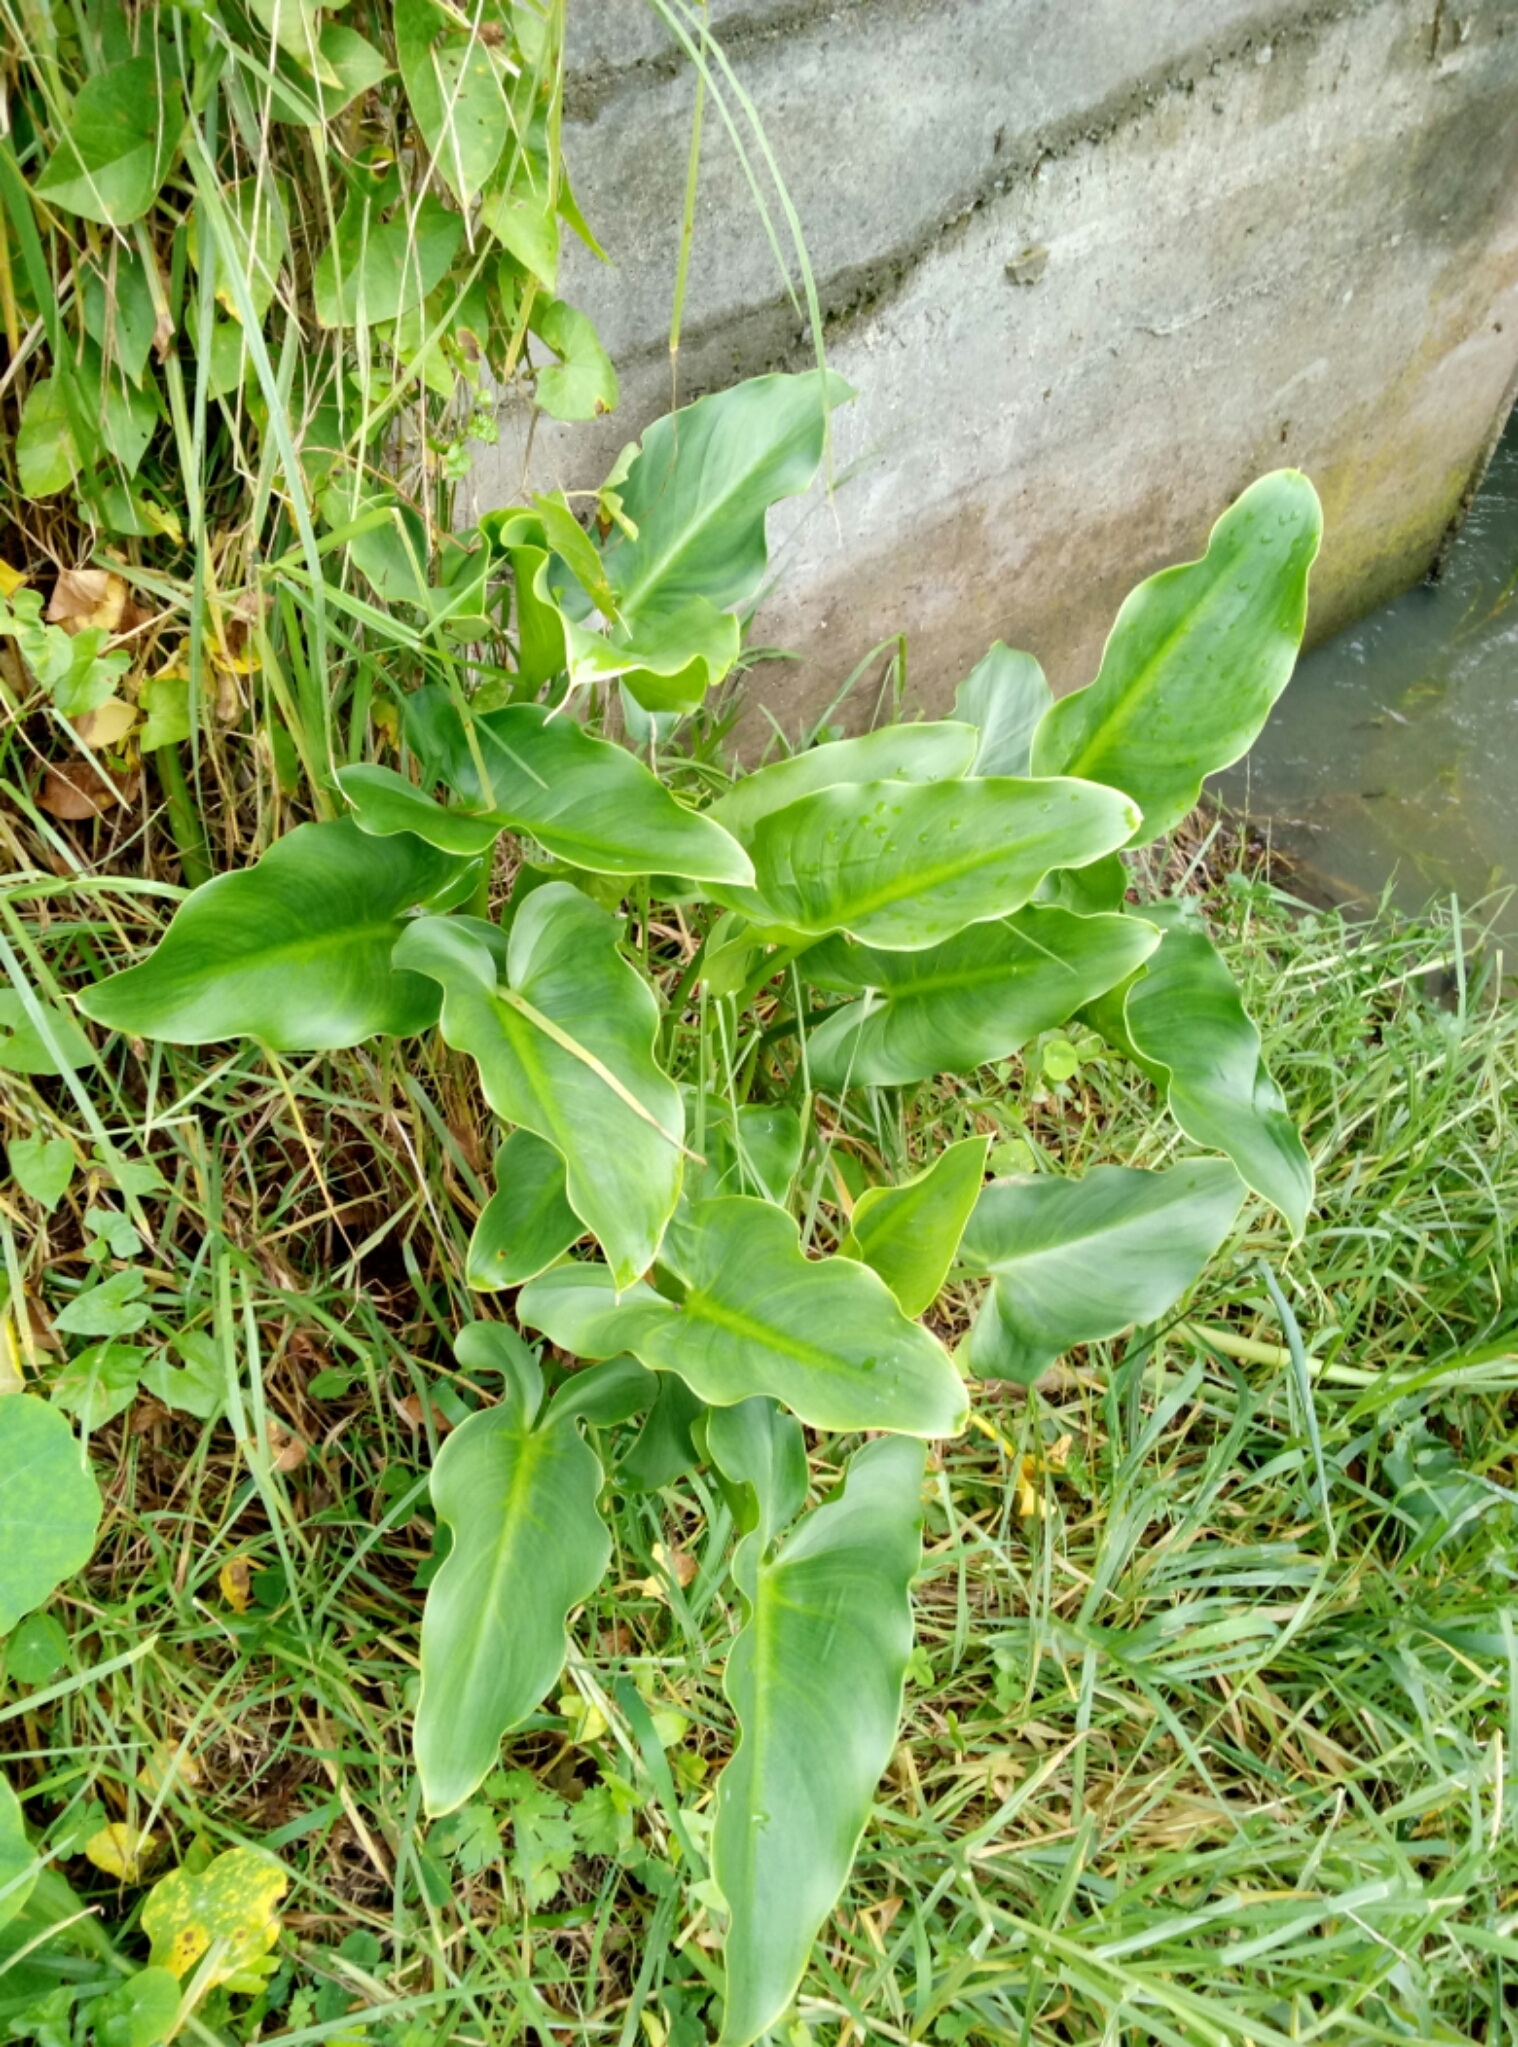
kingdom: Plantae
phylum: Tracheophyta
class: Liliopsida
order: Alismatales
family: Araceae
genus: Zantedeschia
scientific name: Zantedeschia aethiopica
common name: Altar-lily
